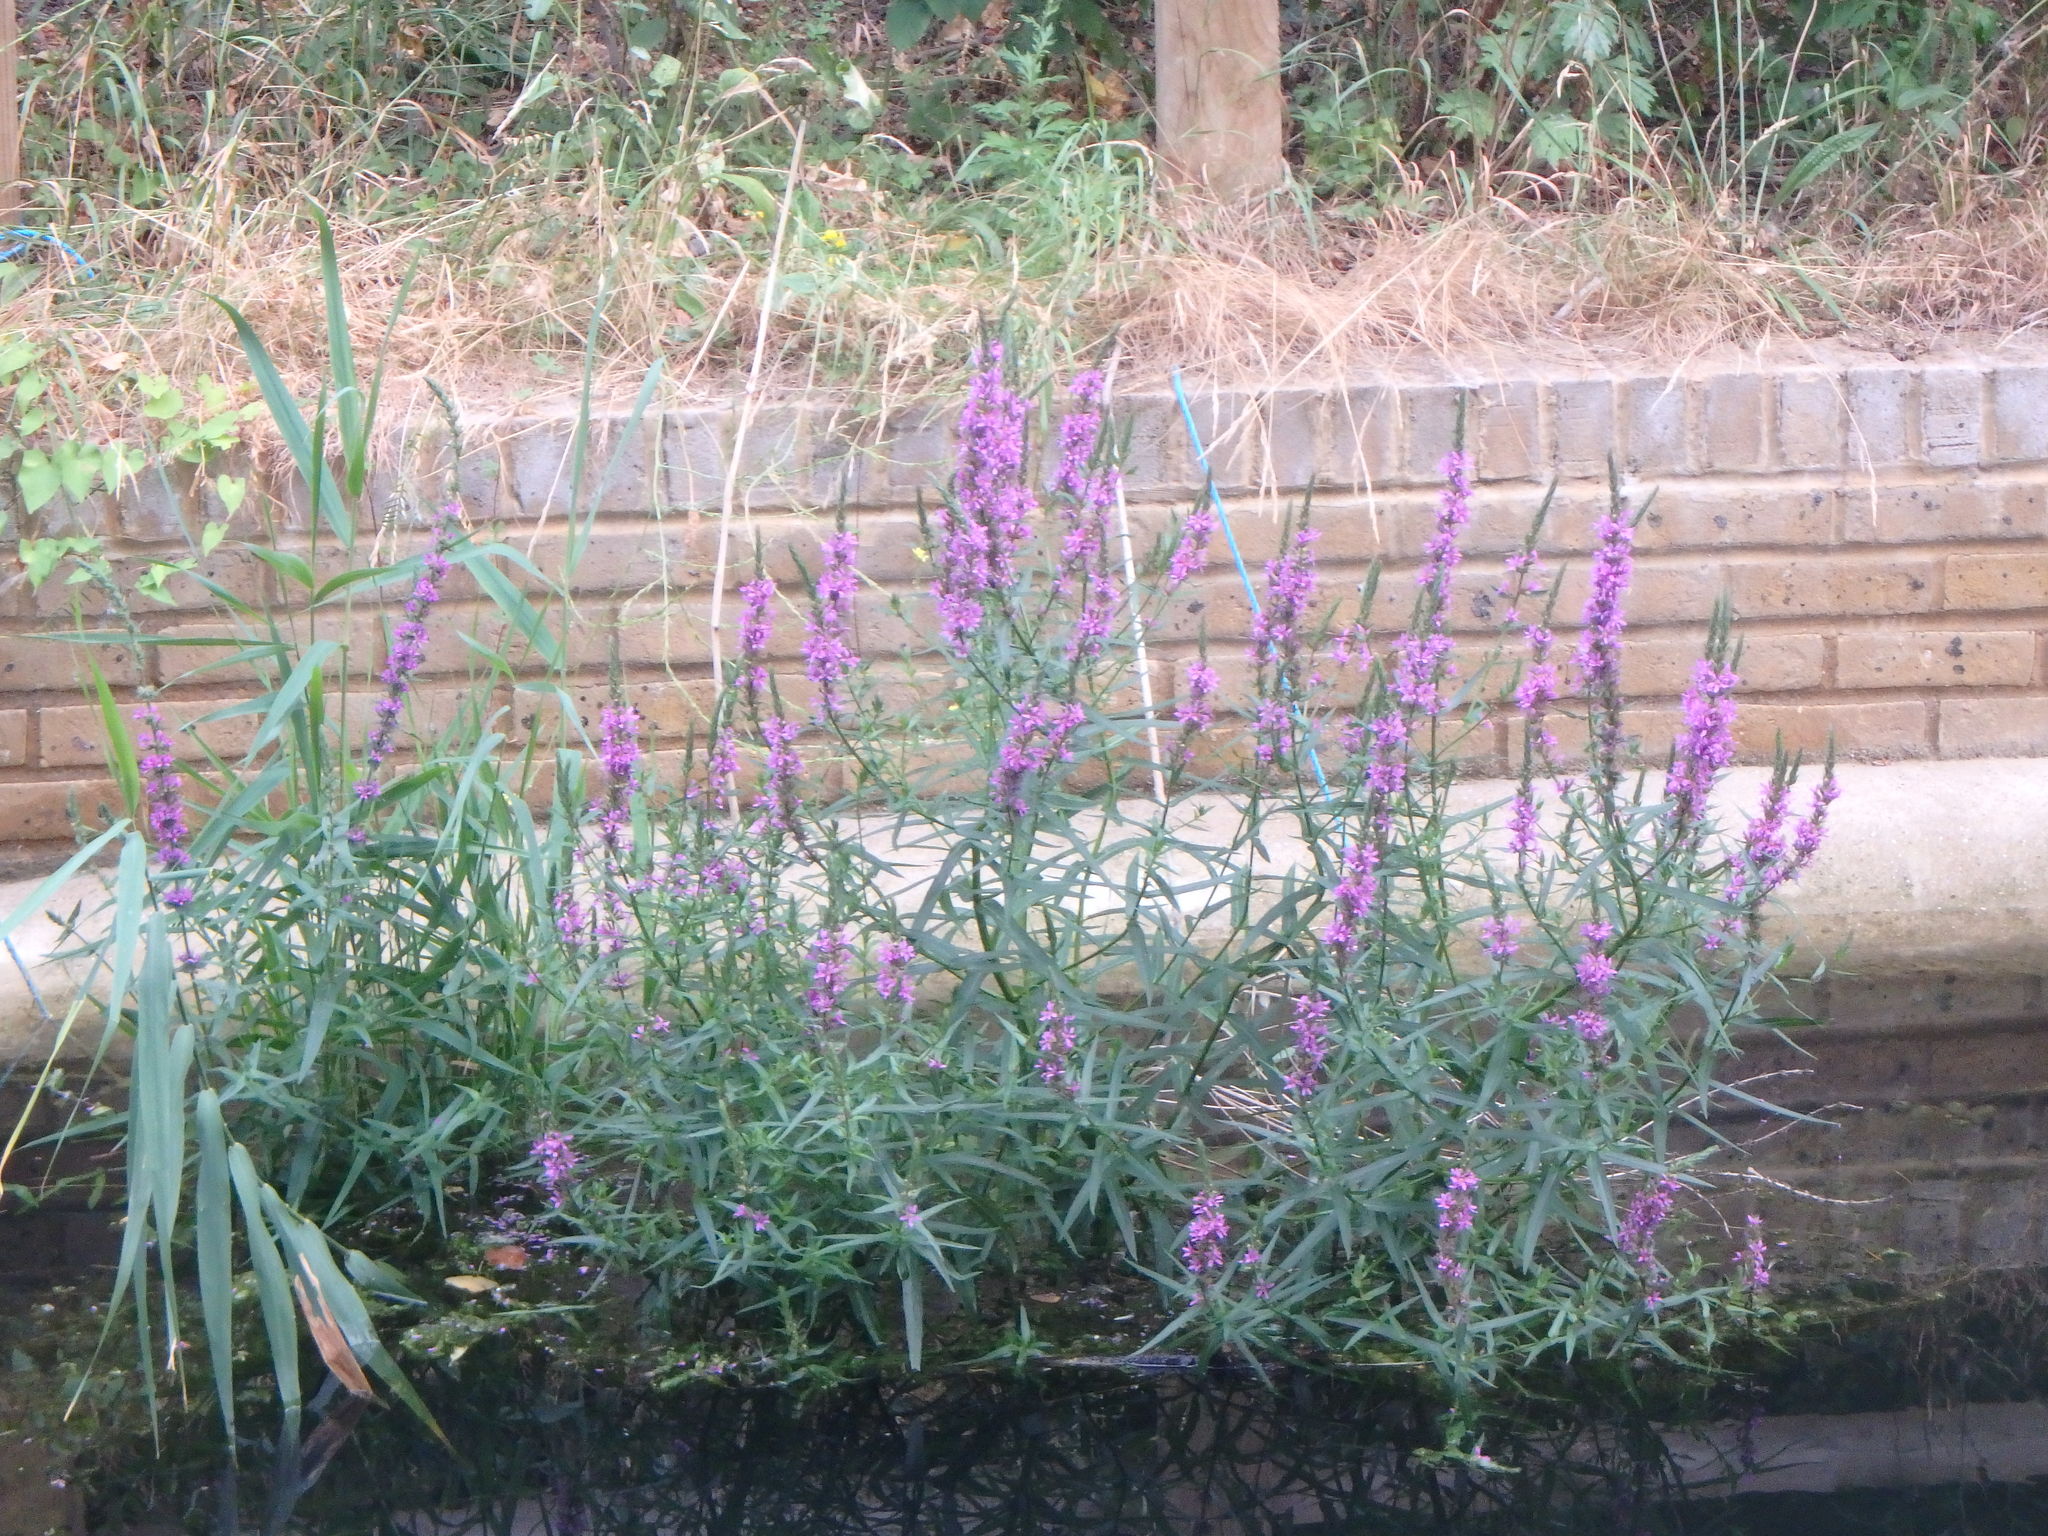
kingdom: Plantae
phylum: Tracheophyta
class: Magnoliopsida
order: Myrtales
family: Lythraceae
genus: Lythrum
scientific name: Lythrum salicaria
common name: Purple loosestrife
